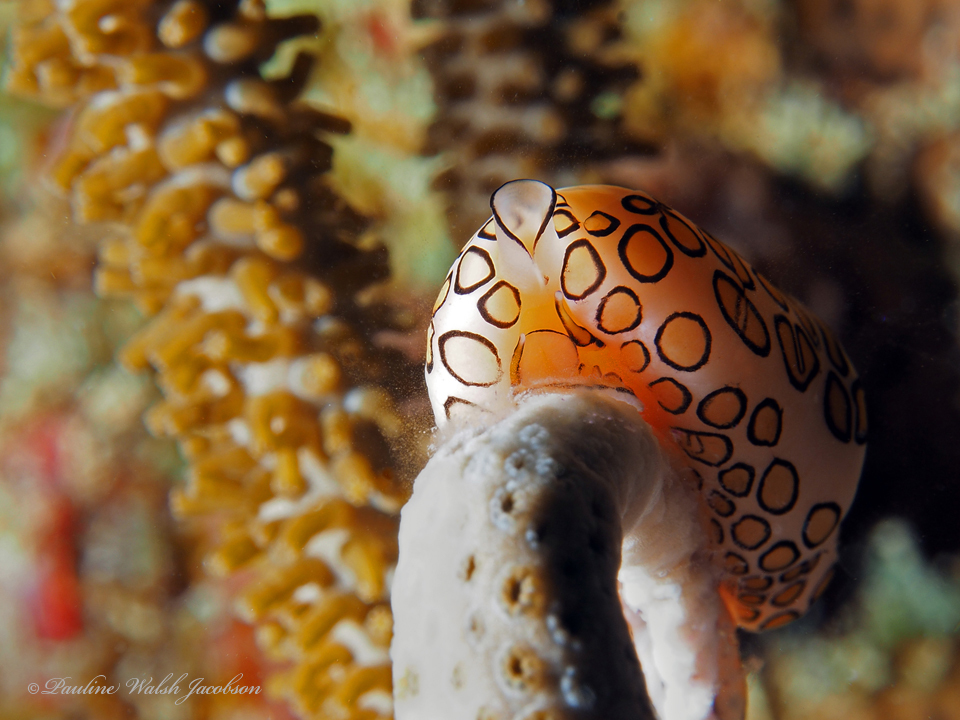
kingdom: Animalia
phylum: Mollusca
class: Gastropoda
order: Littorinimorpha
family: Ovulidae
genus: Cyphoma
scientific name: Cyphoma gibbosum
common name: Flamingo tongue
